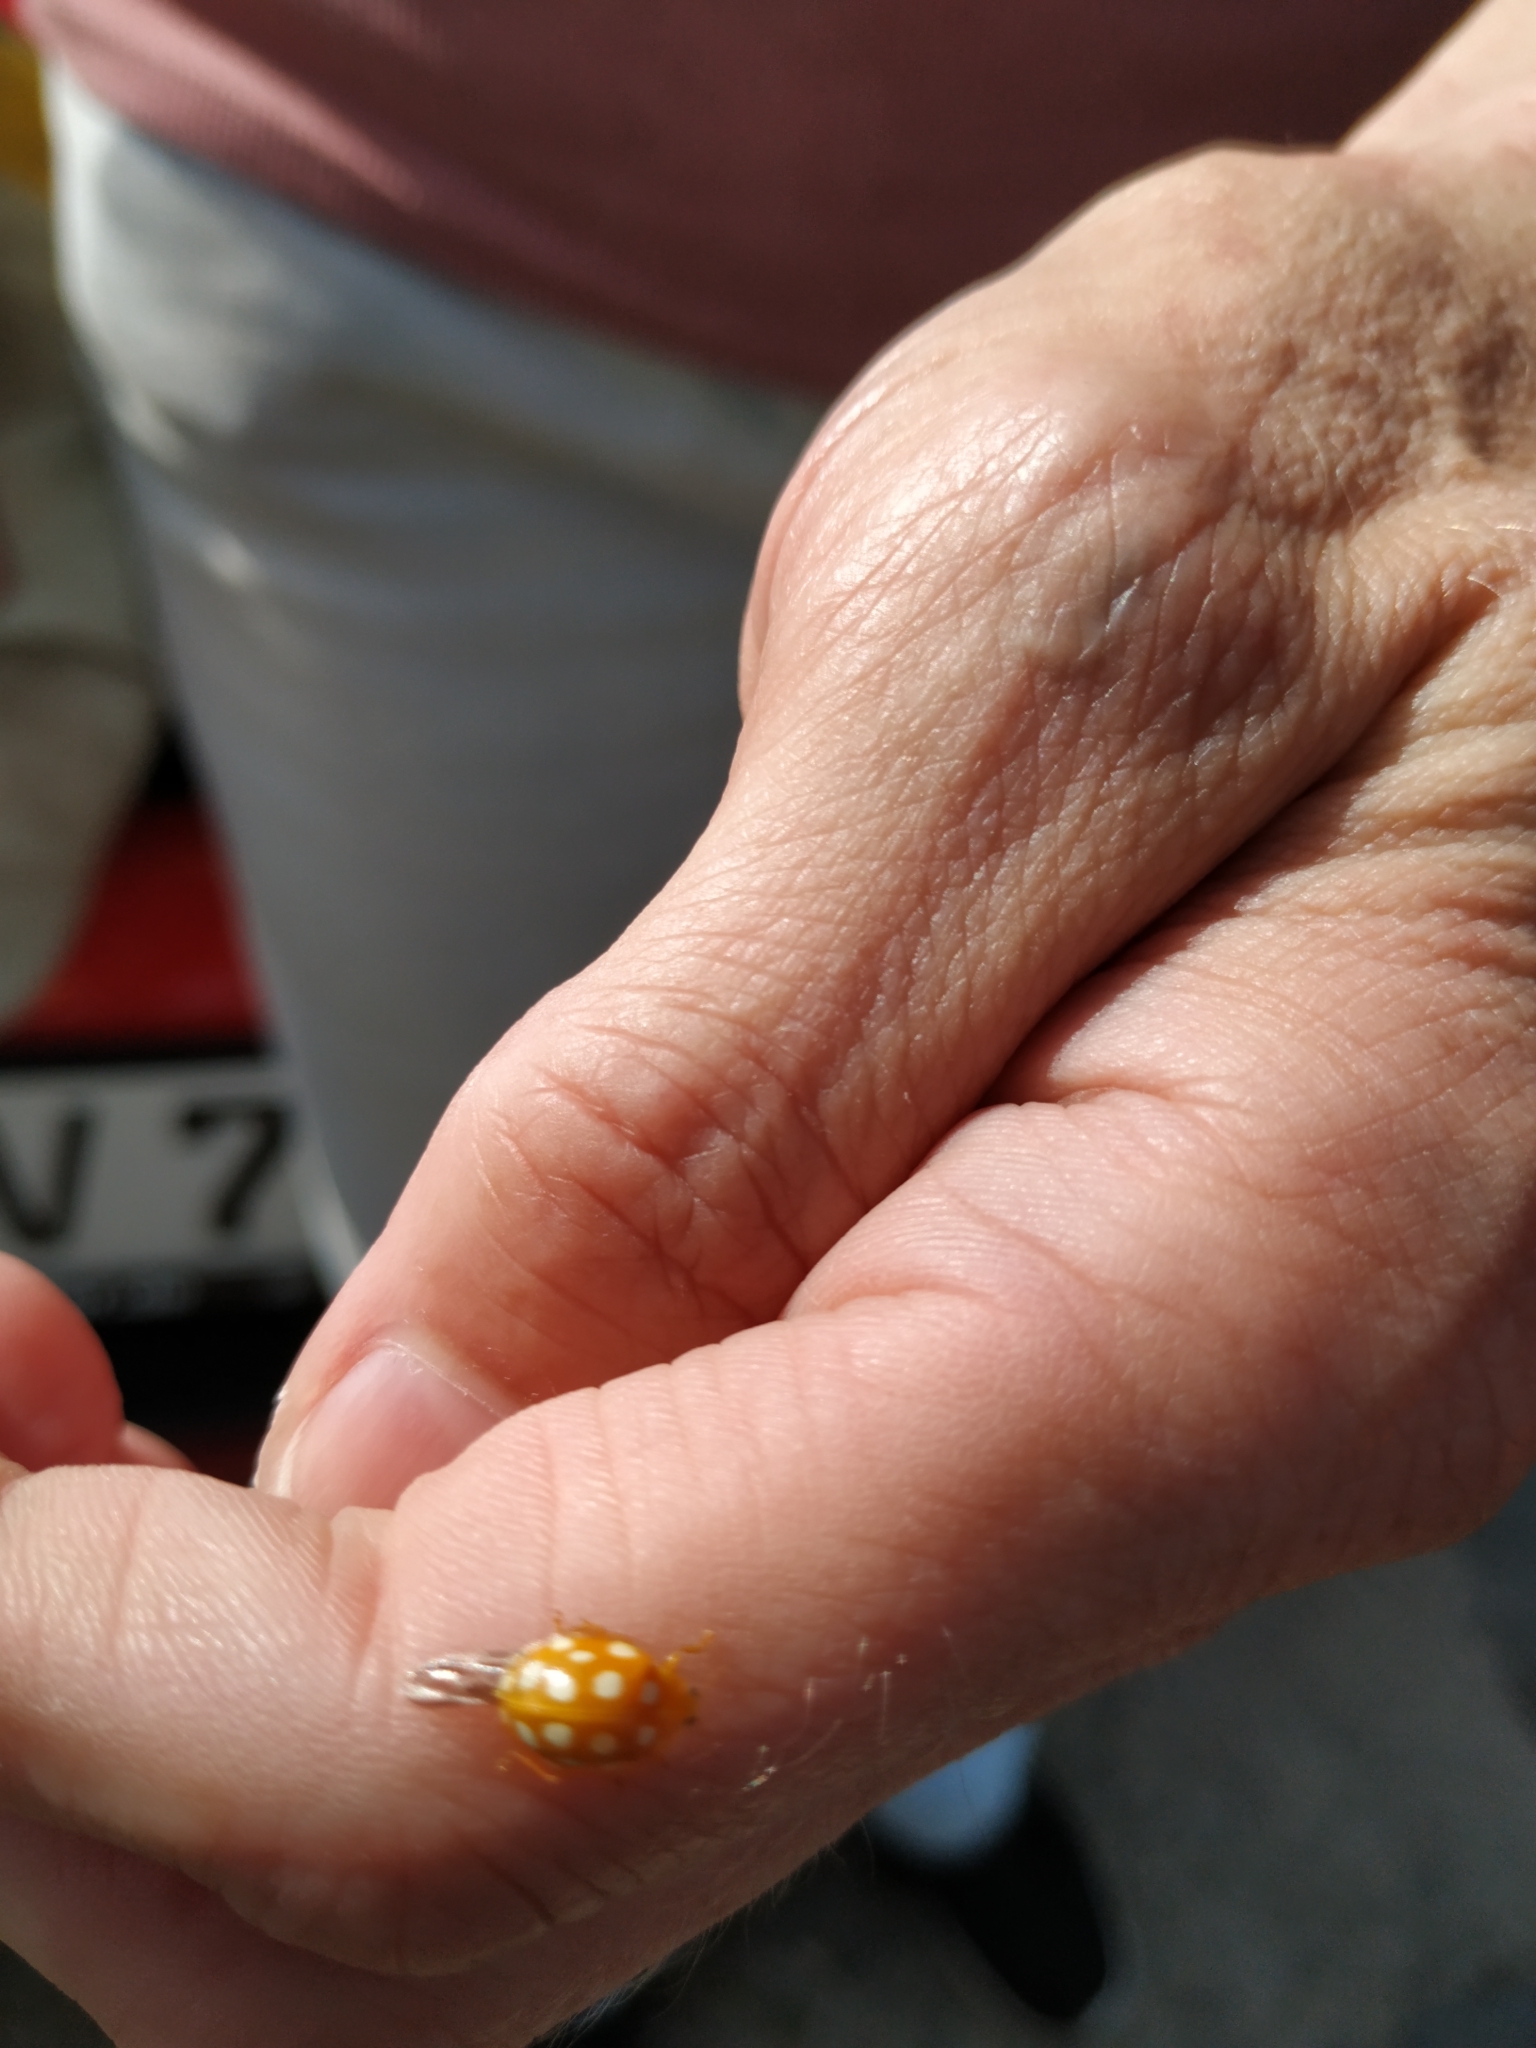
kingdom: Animalia
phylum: Arthropoda
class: Insecta
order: Coleoptera
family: Coccinellidae
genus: Halyzia
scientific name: Halyzia sedecimguttata
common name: Orange ladybird
